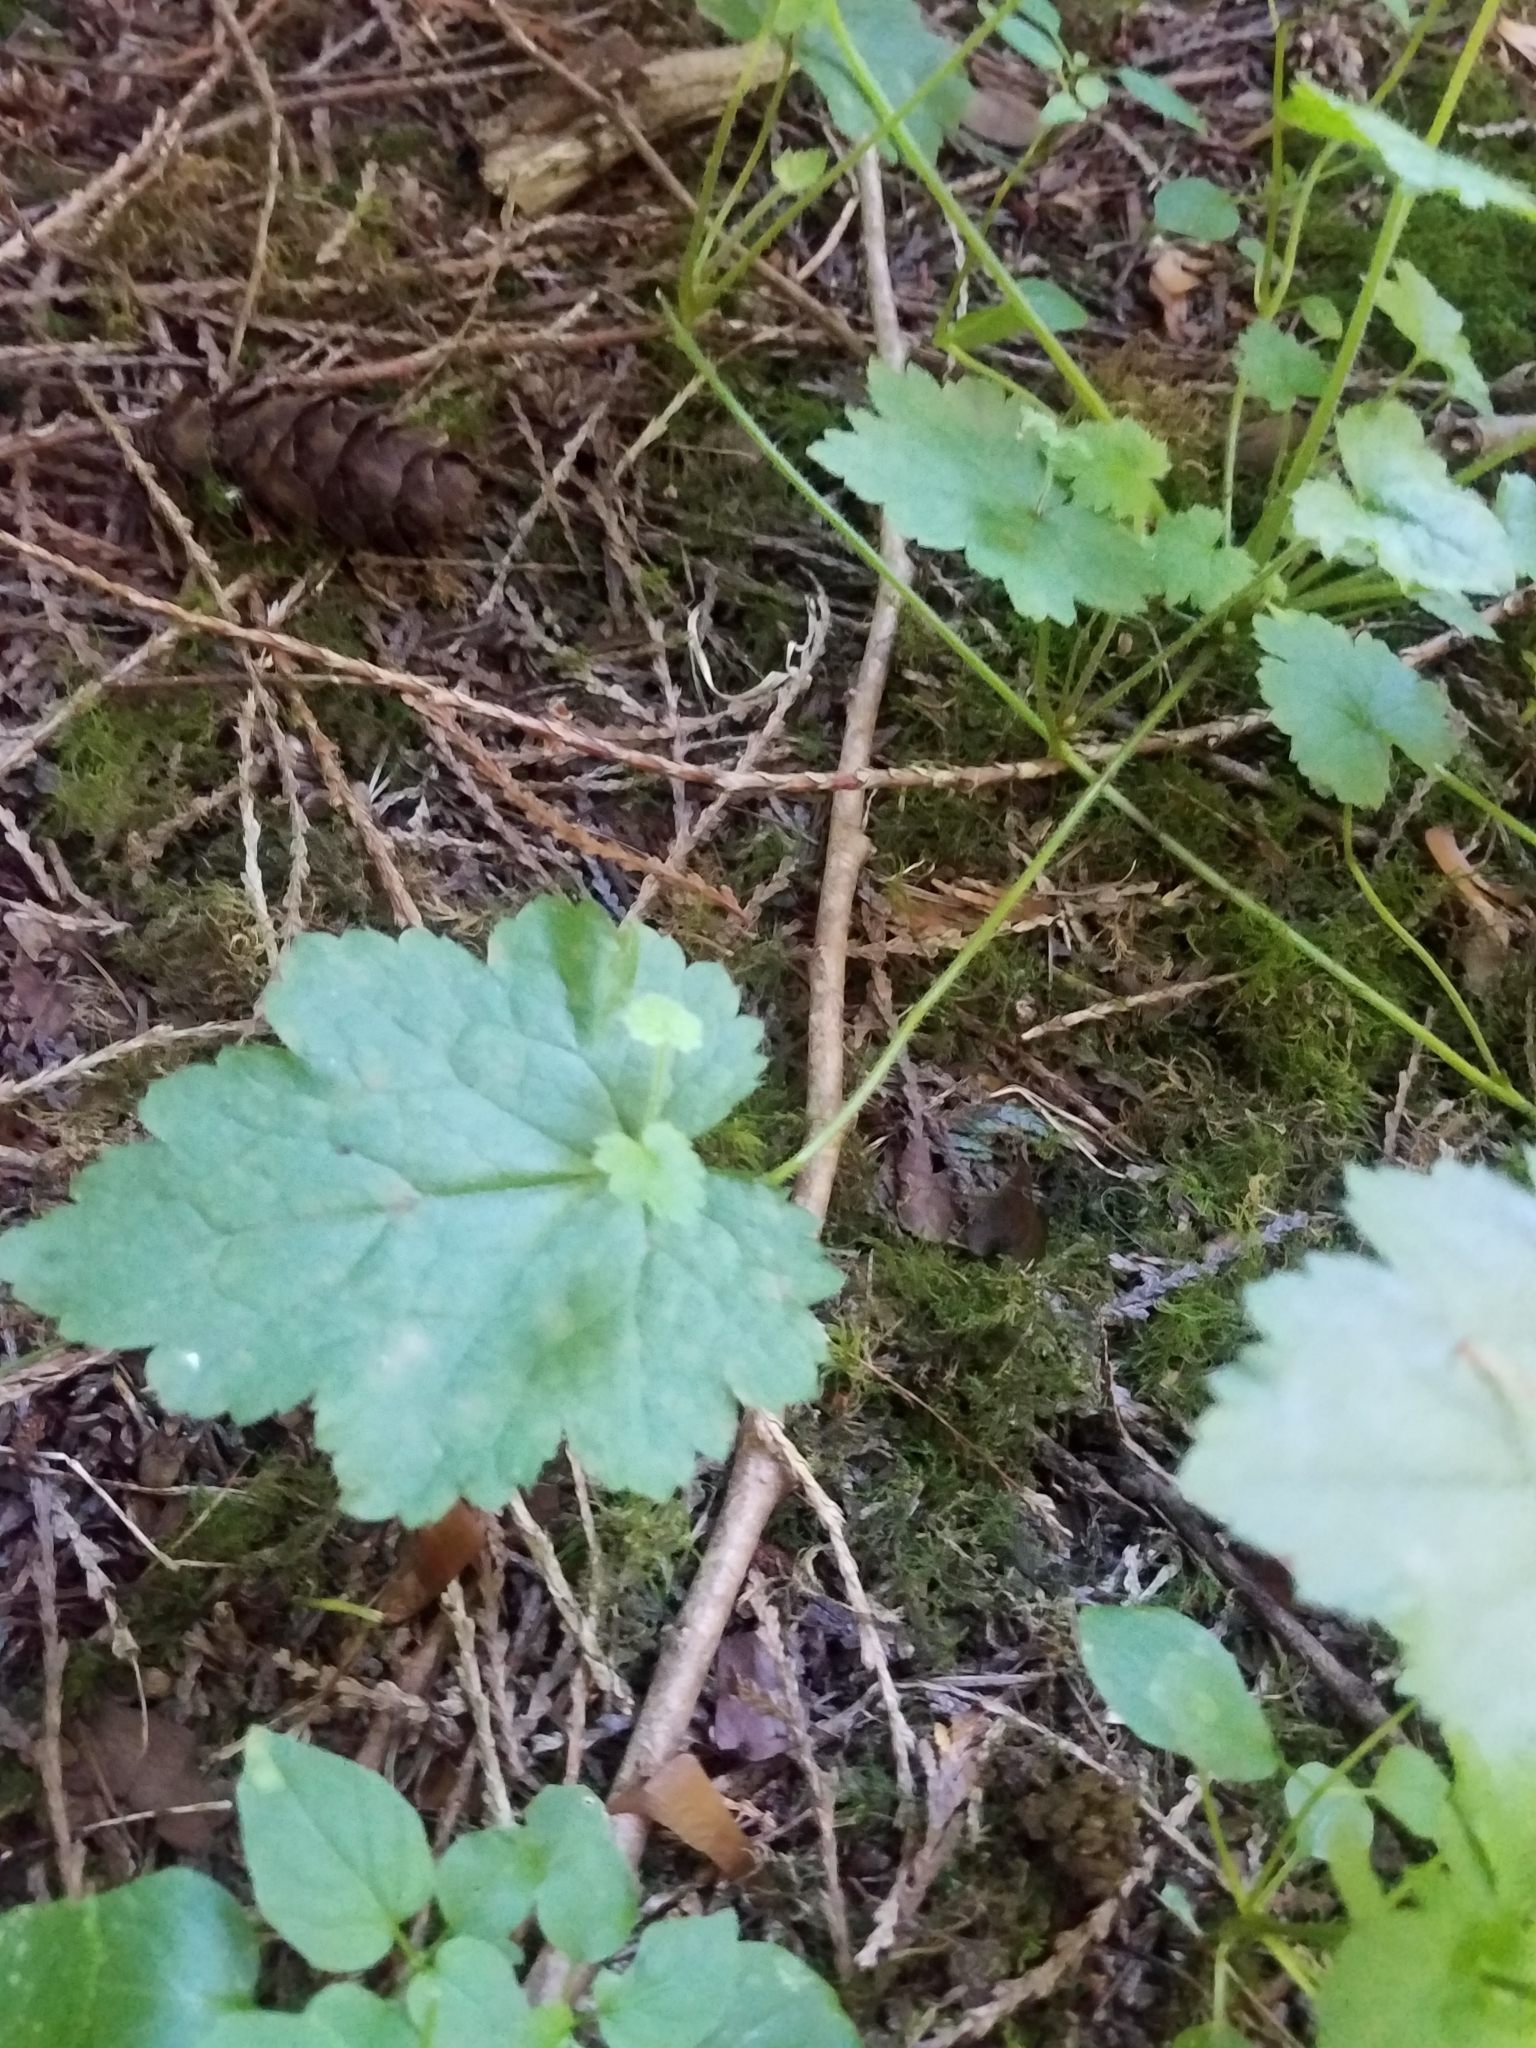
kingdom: Plantae
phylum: Tracheophyta
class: Magnoliopsida
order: Saxifragales
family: Saxifragaceae
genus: Tolmiea
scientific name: Tolmiea menziesii
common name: Pick-a-back-plant
